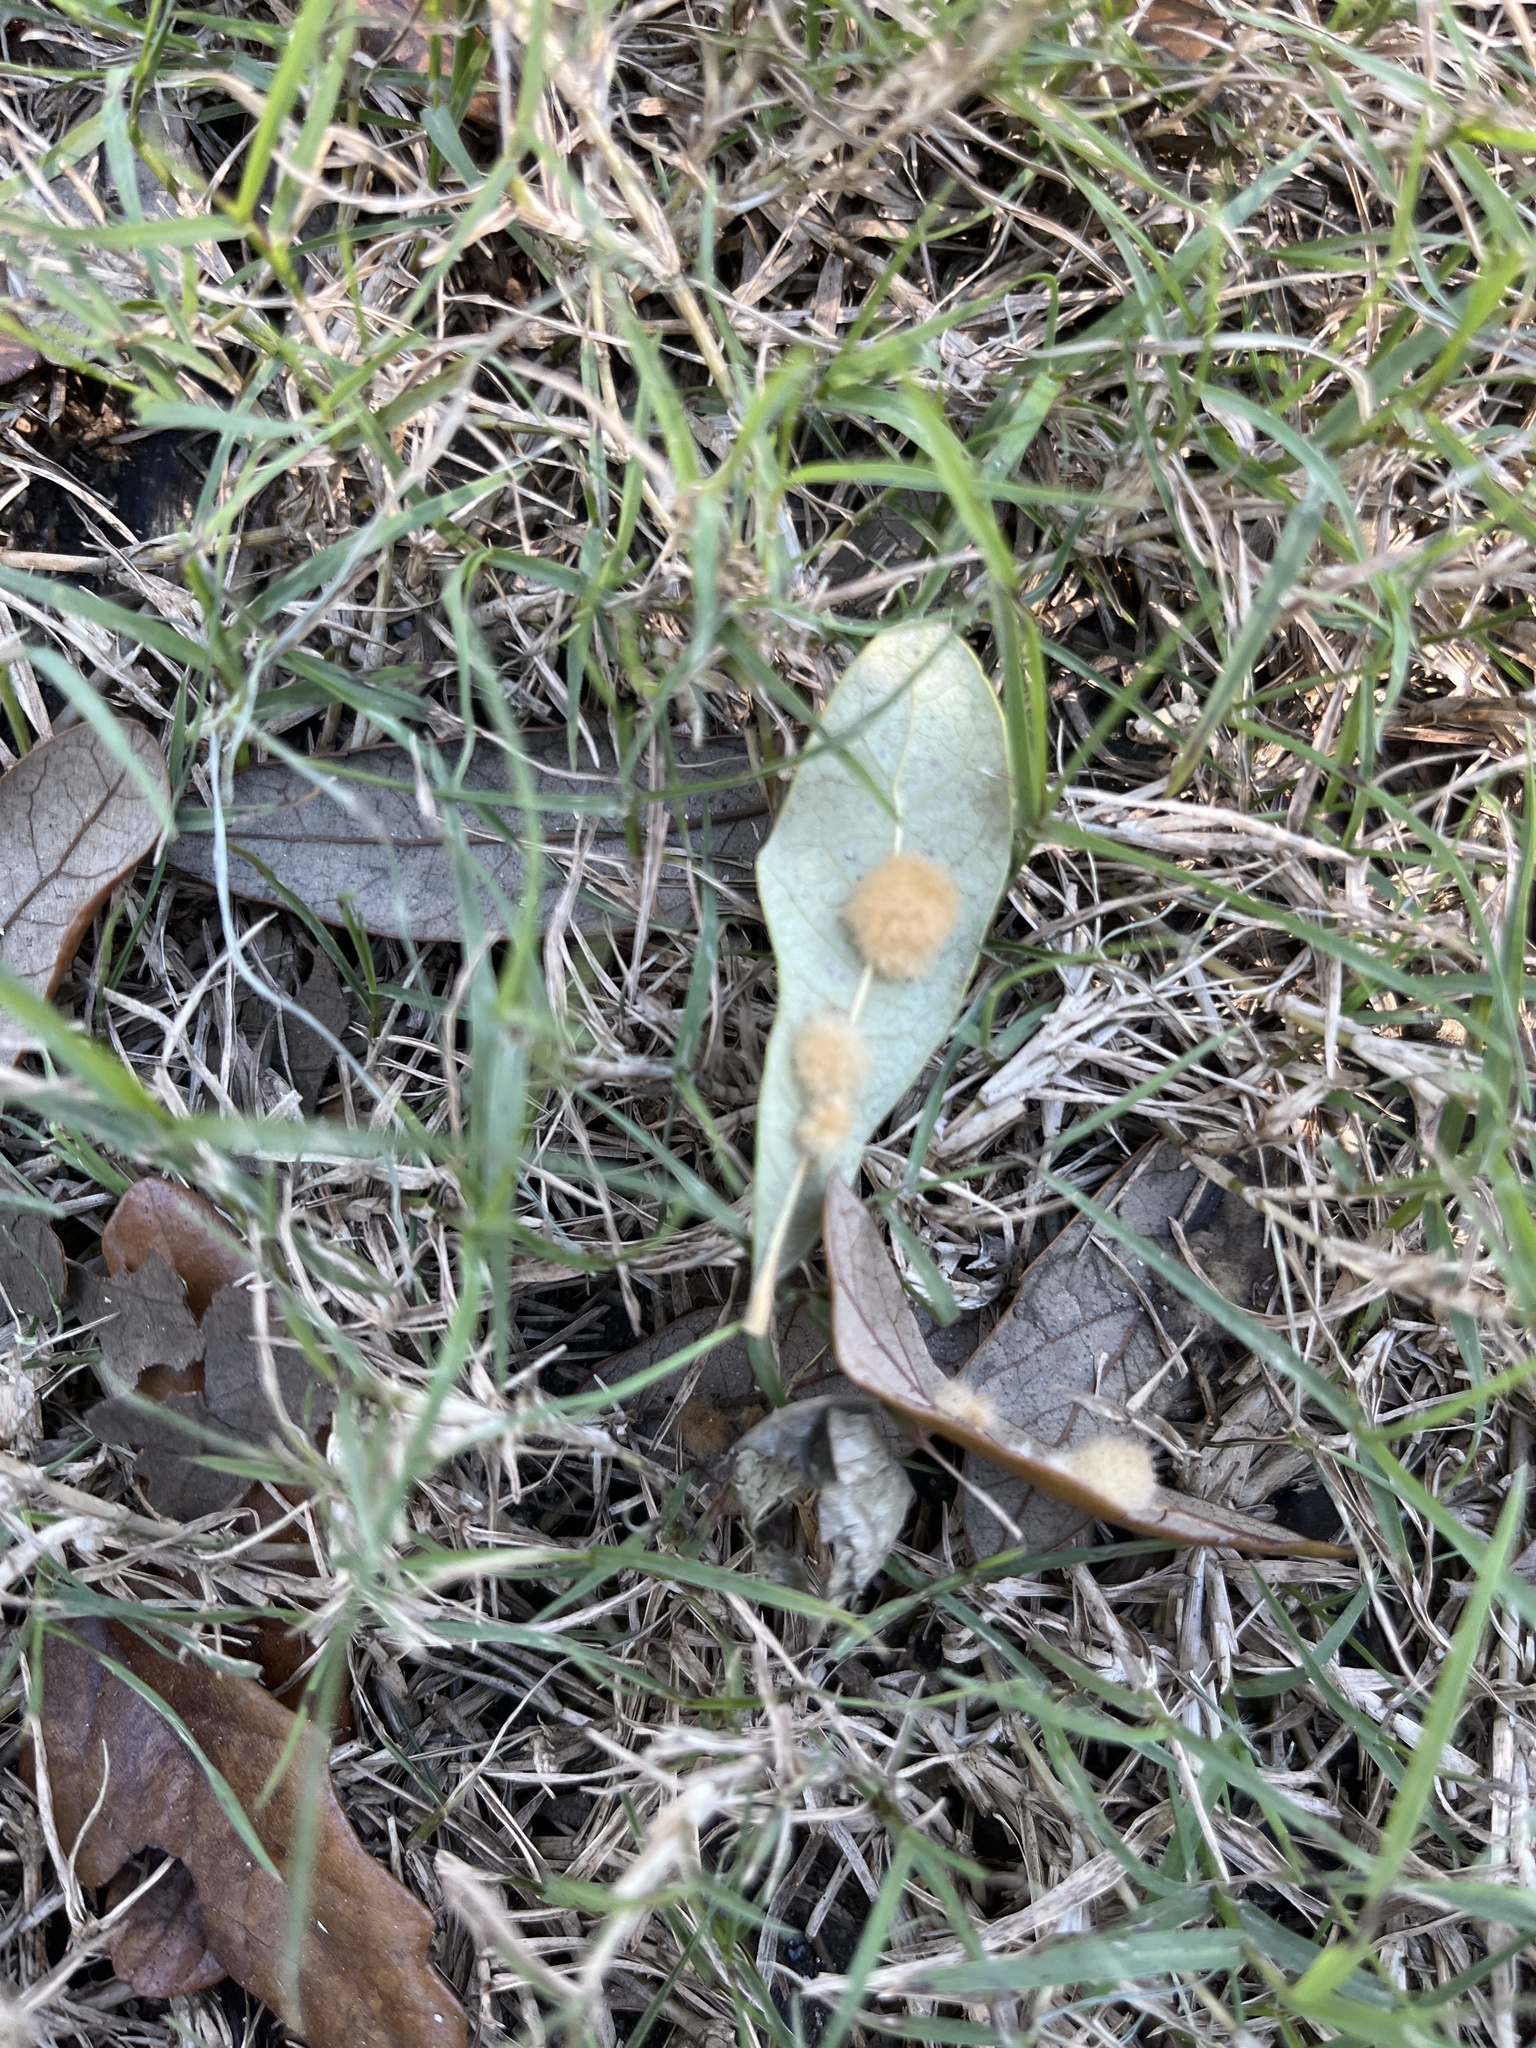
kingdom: Animalia
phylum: Arthropoda
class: Insecta
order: Hymenoptera
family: Cynipidae
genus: Andricus
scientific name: Andricus Druon quercuslanigerum
